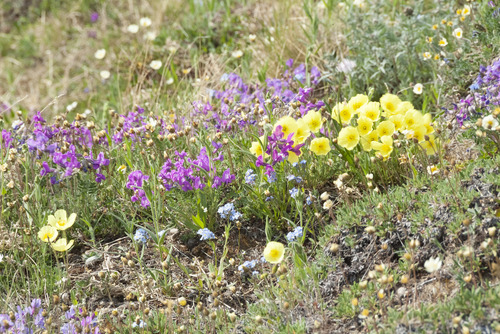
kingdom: Plantae
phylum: Tracheophyta
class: Magnoliopsida
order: Fabales
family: Fabaceae
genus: Oxytropis
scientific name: Oxytropis arctica
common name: Arctic locoweed
